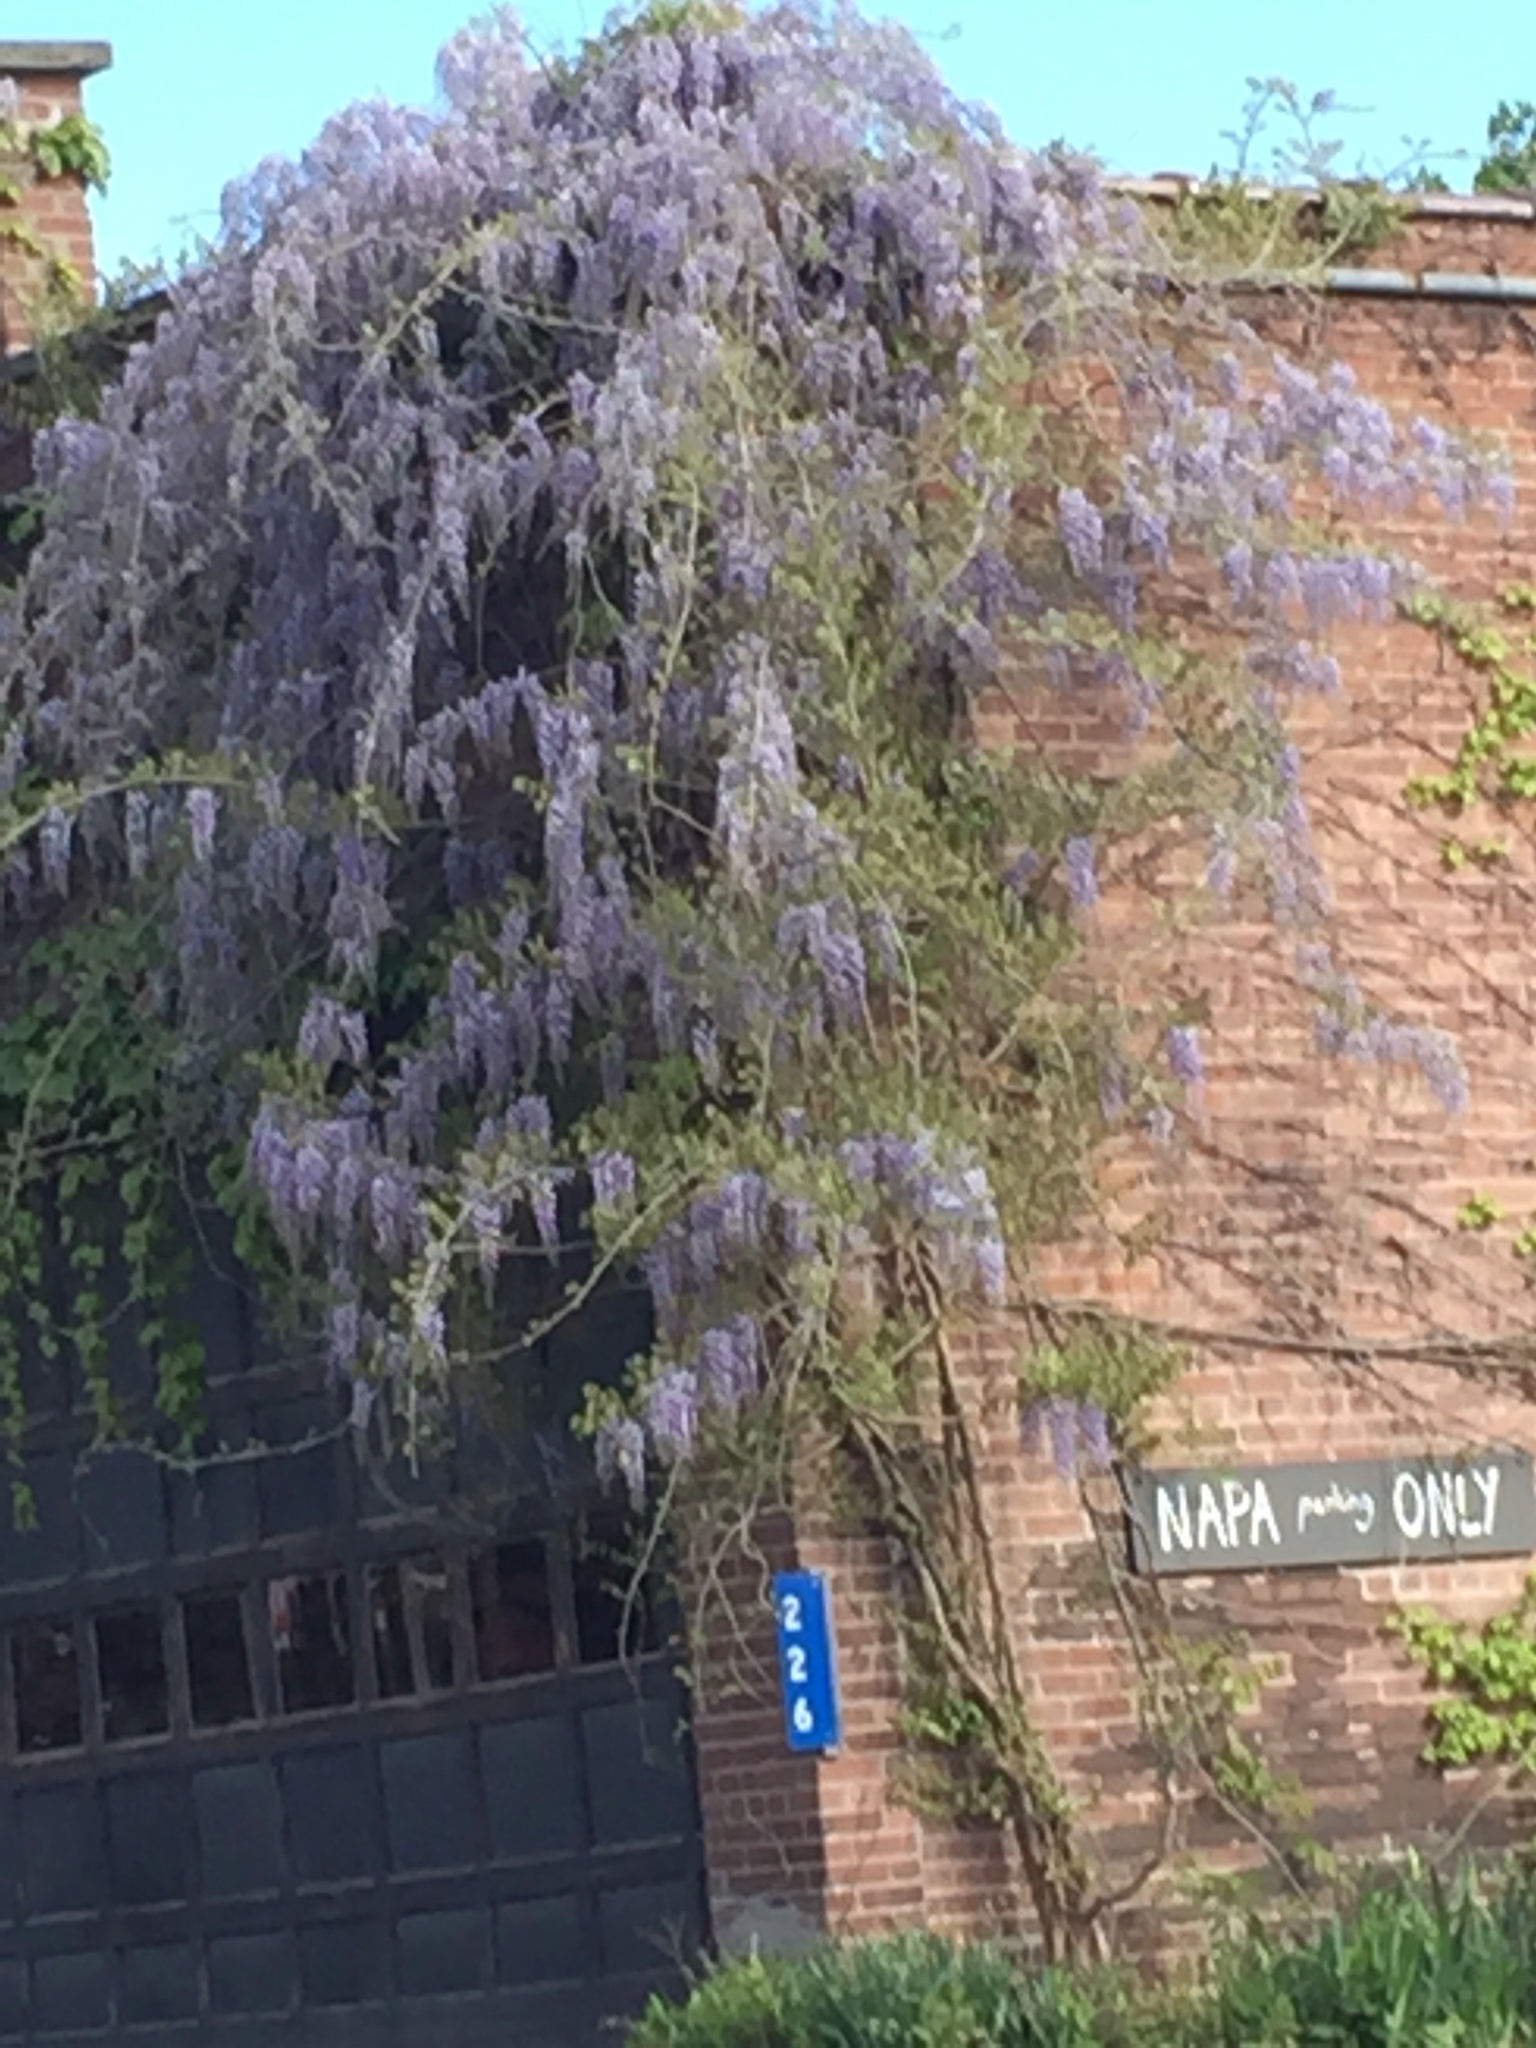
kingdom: Plantae
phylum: Tracheophyta
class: Magnoliopsida
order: Fabales
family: Fabaceae
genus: Wisteria
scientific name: Wisteria sinensis
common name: Chinese wisteria
